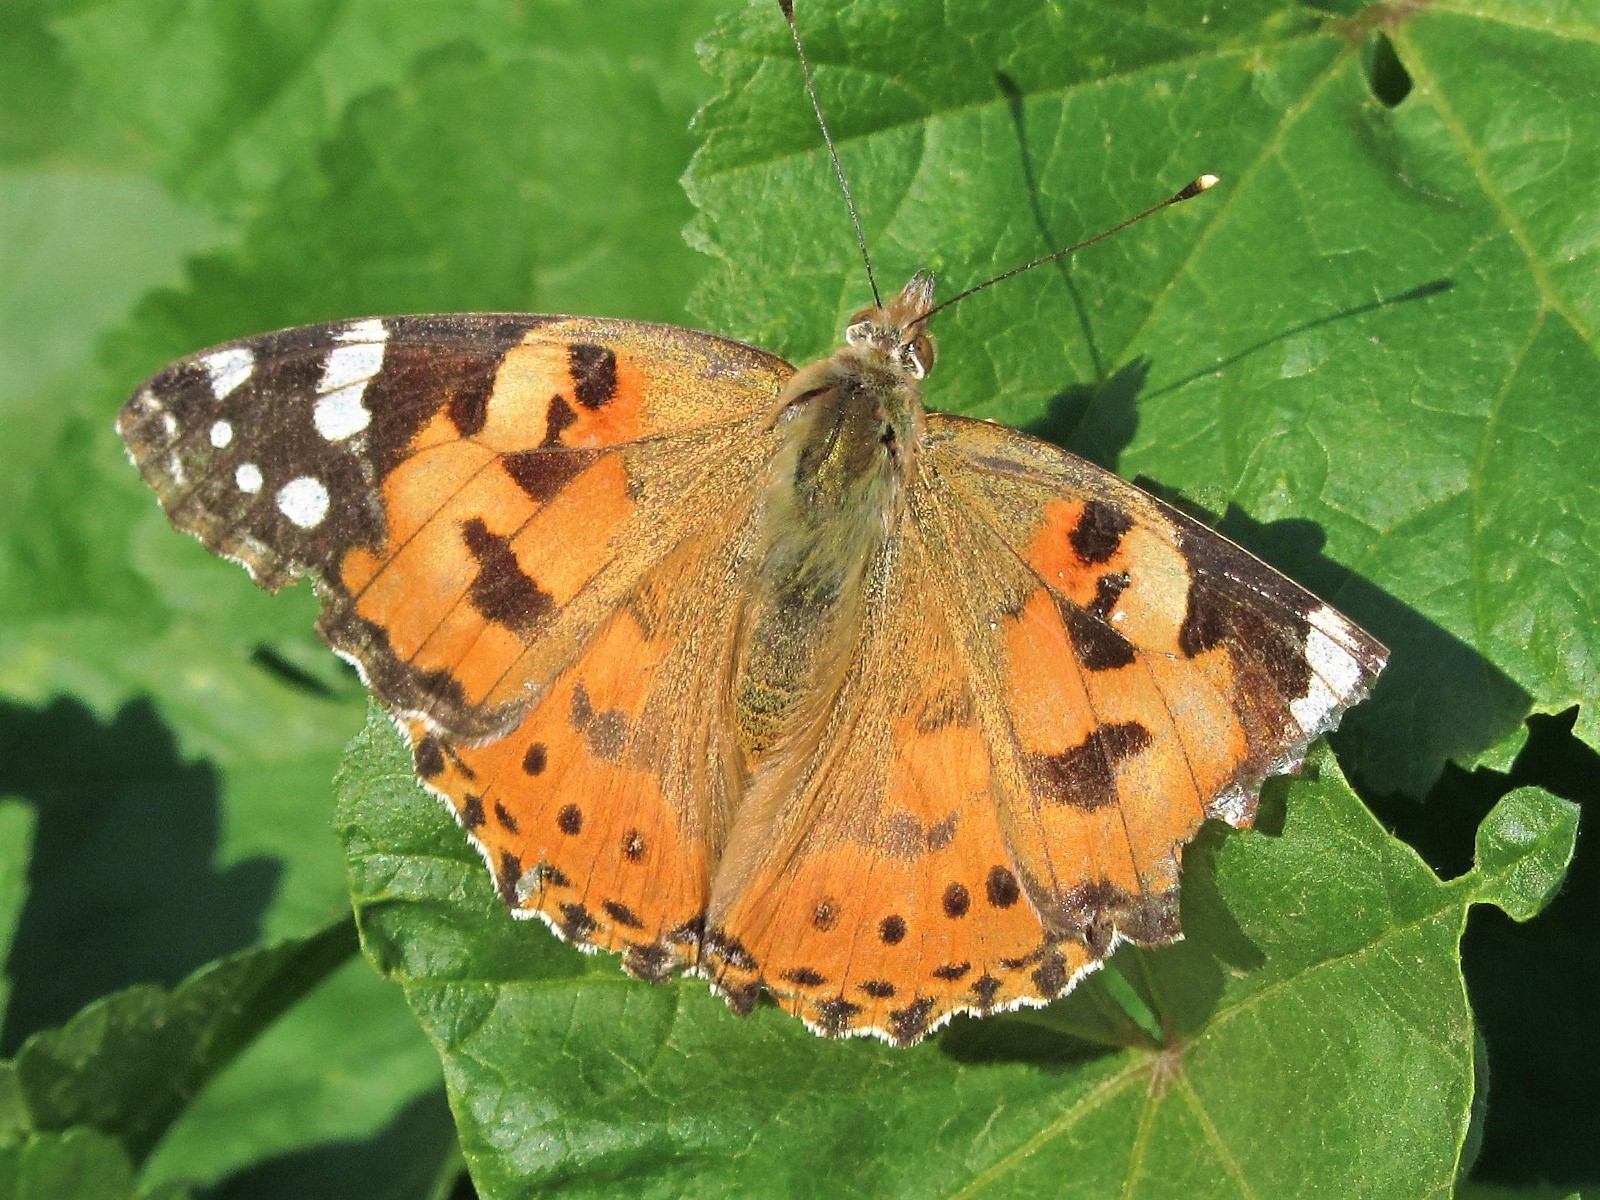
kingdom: Animalia
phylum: Arthropoda
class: Insecta
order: Lepidoptera
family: Nymphalidae
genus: Vanessa
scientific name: Vanessa cardui
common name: Painted lady
